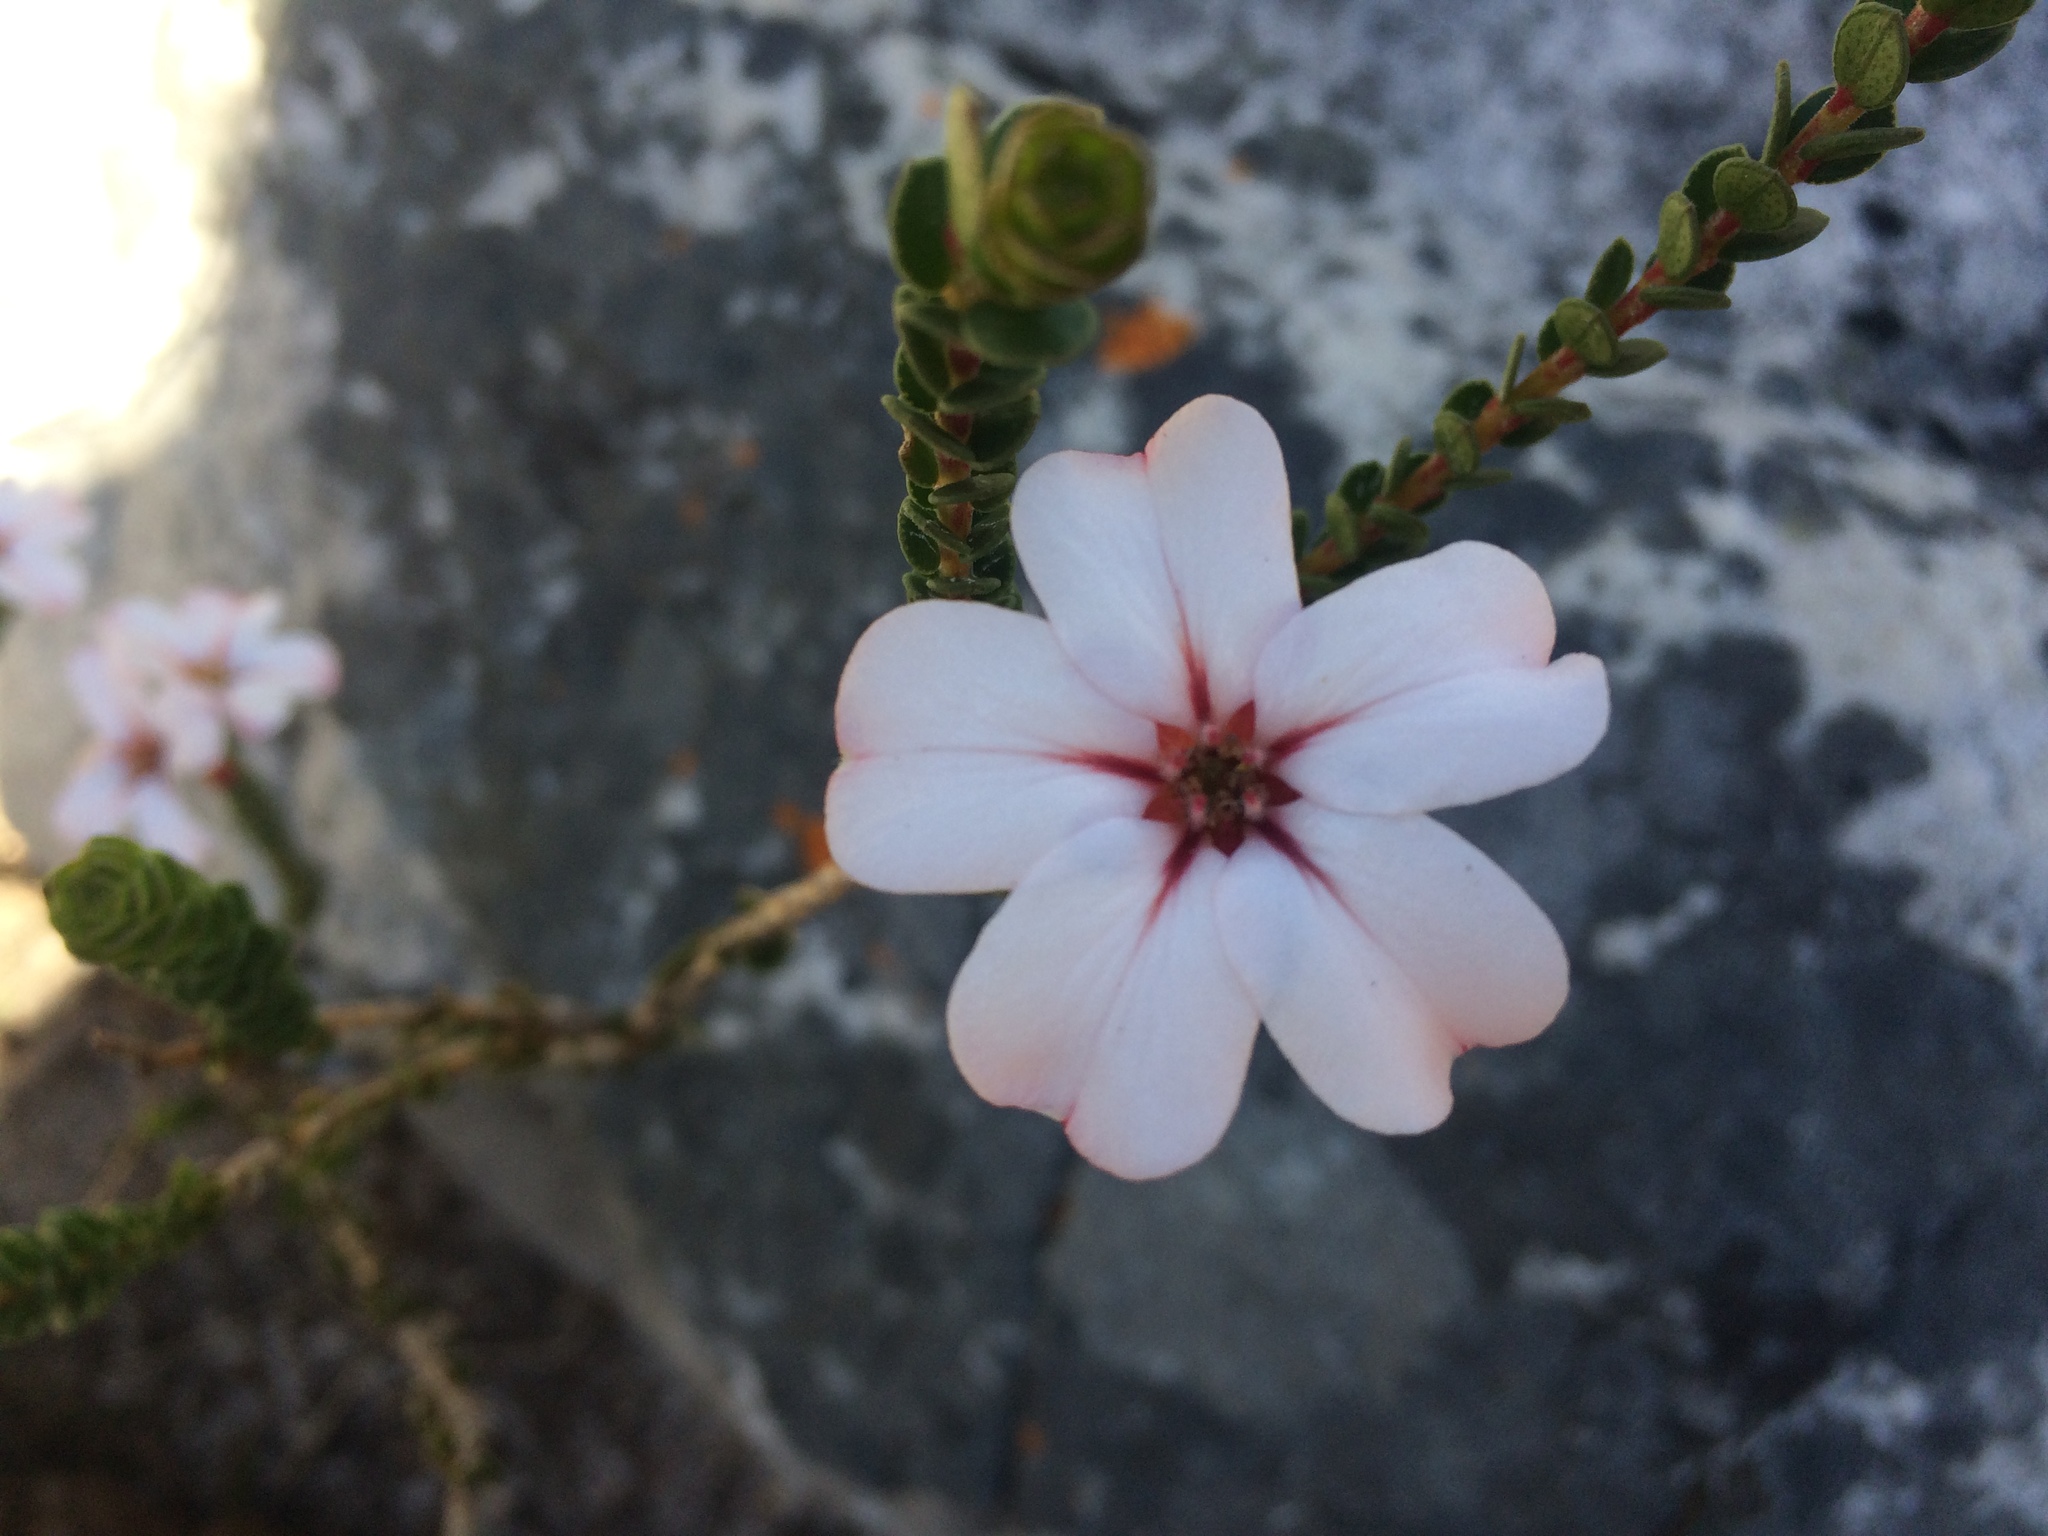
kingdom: Plantae
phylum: Tracheophyta
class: Magnoliopsida
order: Sapindales
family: Rutaceae
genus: Adenandra
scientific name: Adenandra villosa
